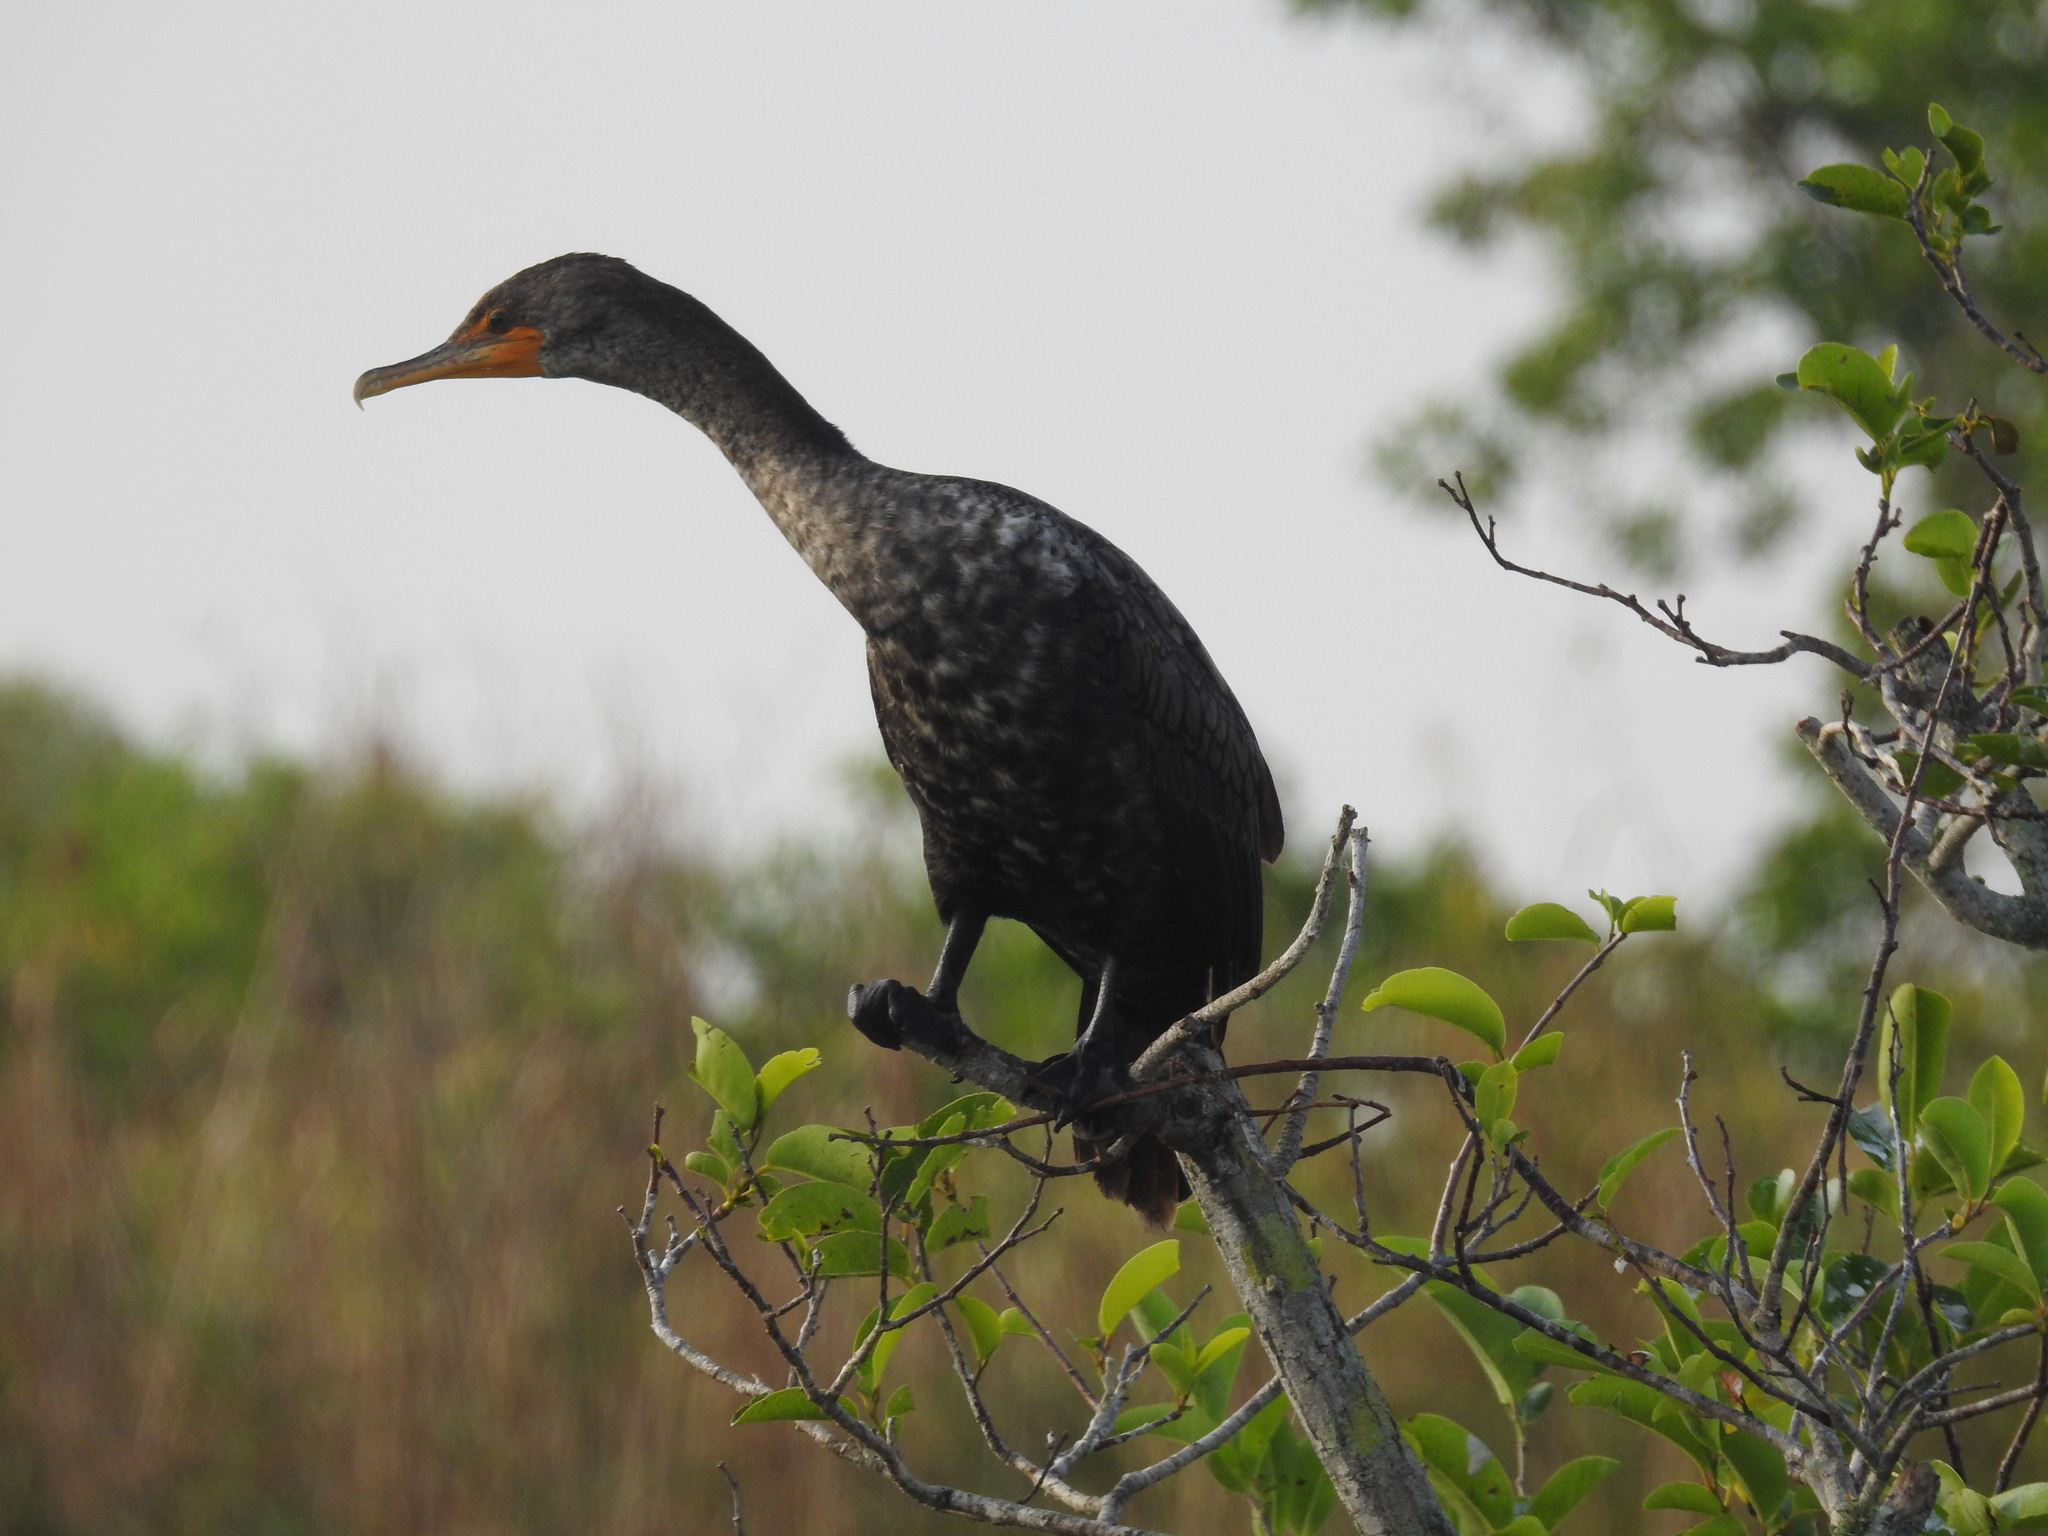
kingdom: Animalia
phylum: Chordata
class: Aves
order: Suliformes
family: Phalacrocoracidae
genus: Phalacrocorax
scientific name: Phalacrocorax auritus
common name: Double-crested cormorant
